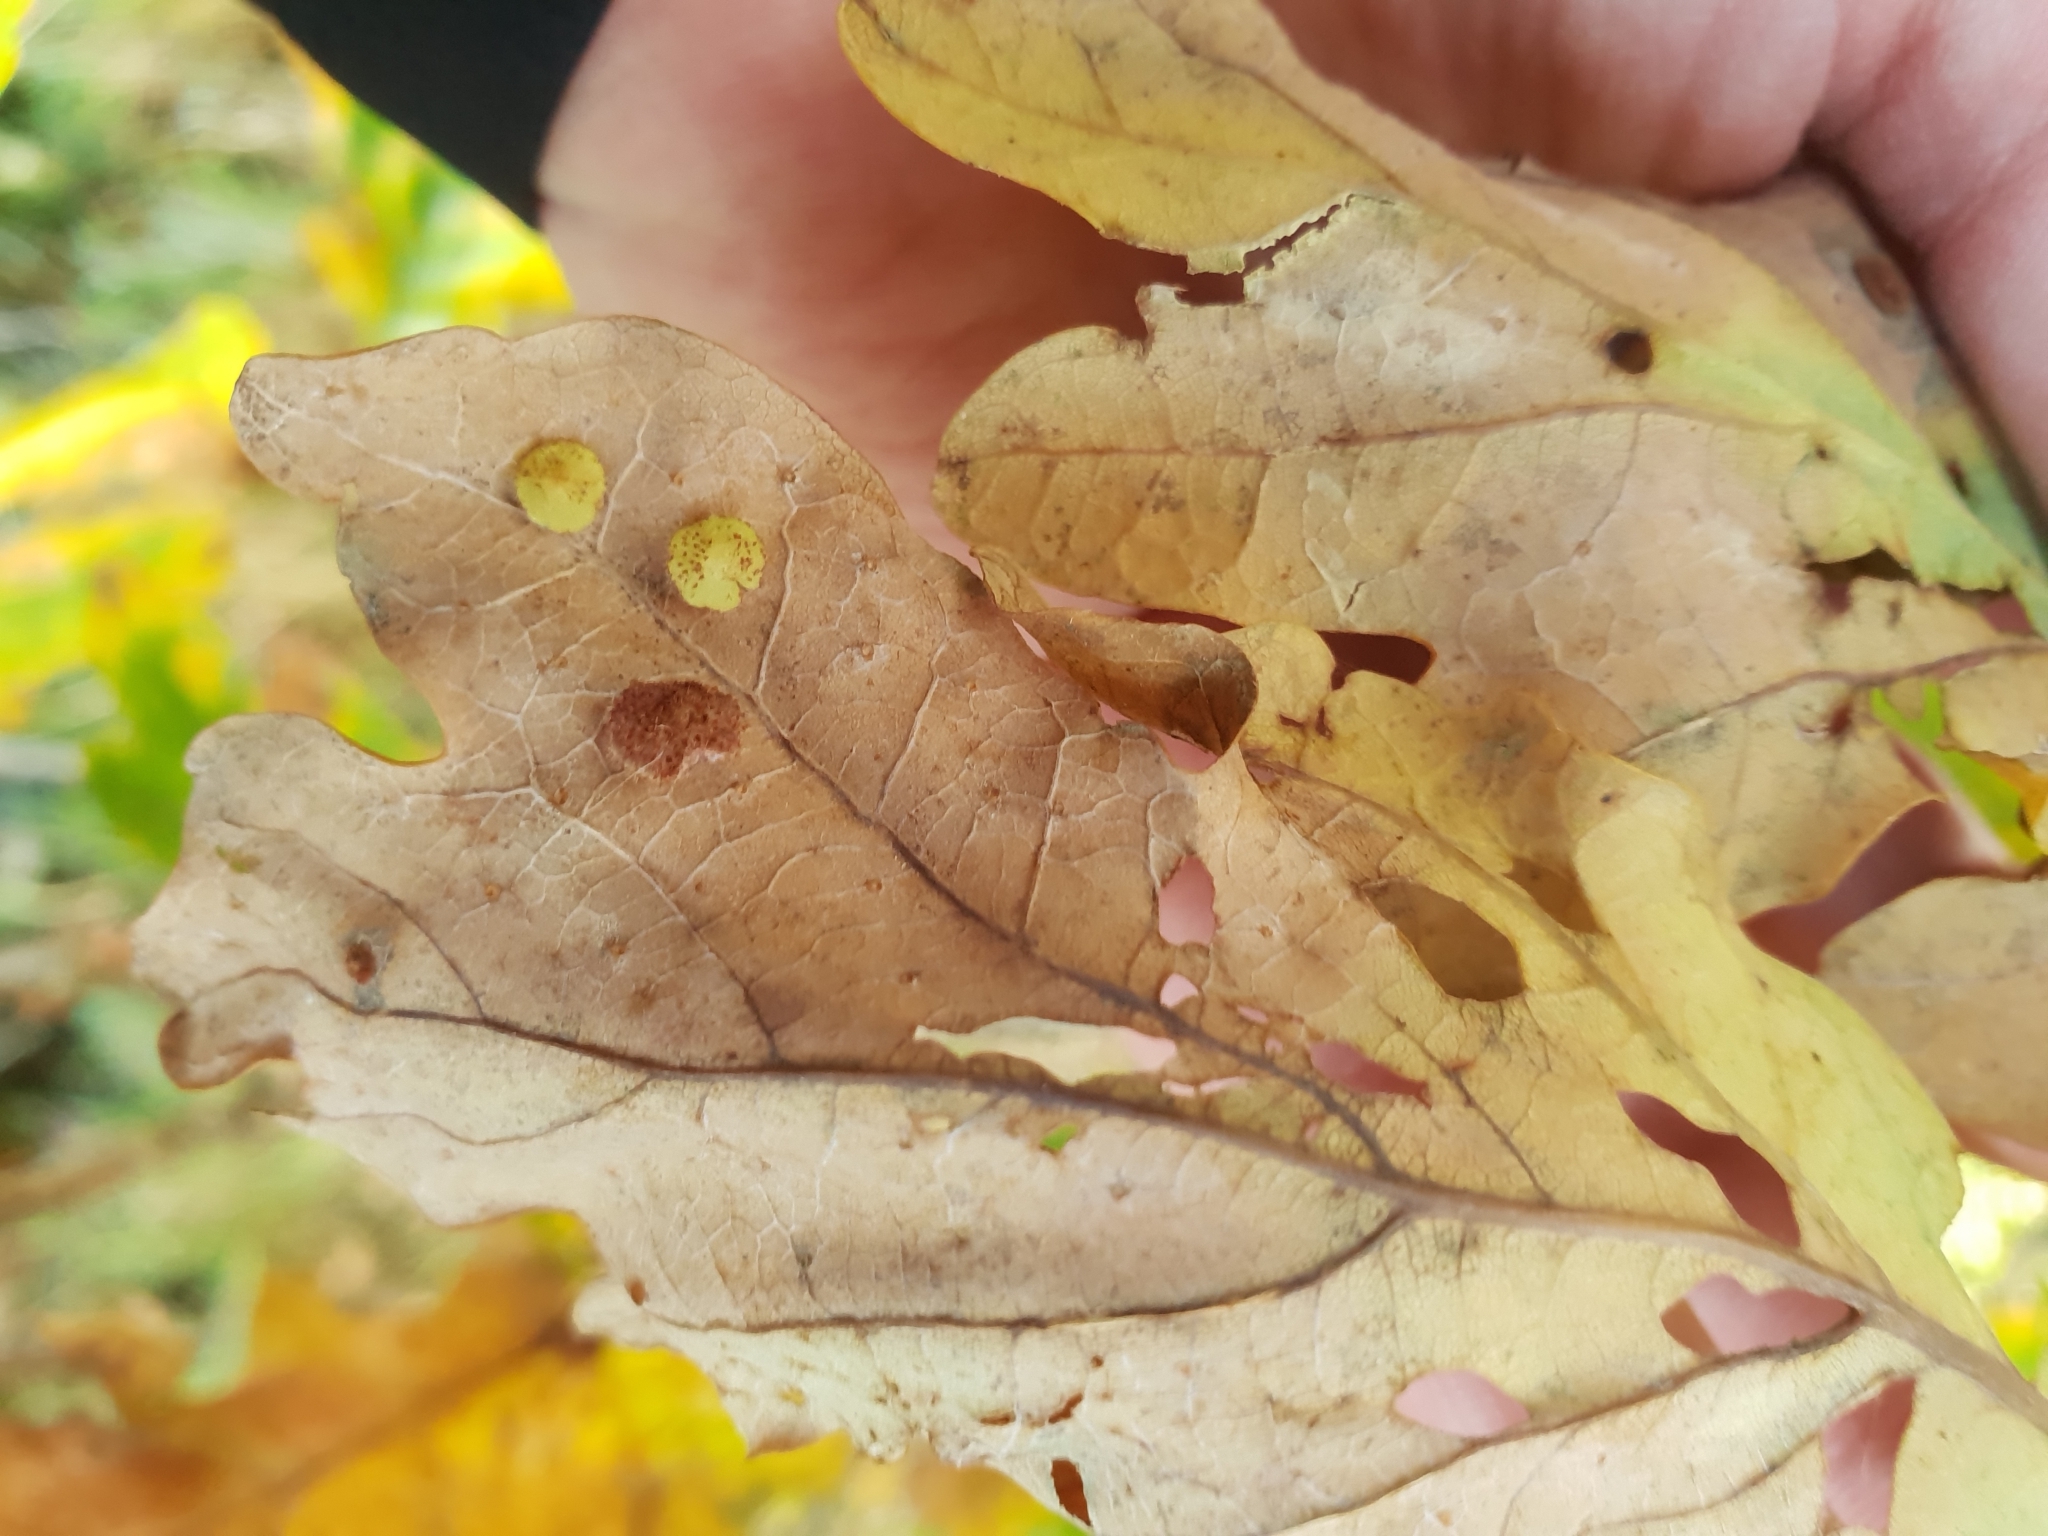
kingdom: Animalia
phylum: Arthropoda
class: Insecta
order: Hymenoptera
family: Cynipidae
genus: Neuroterus
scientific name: Neuroterus quercusbaccarum
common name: Common spangle gall
